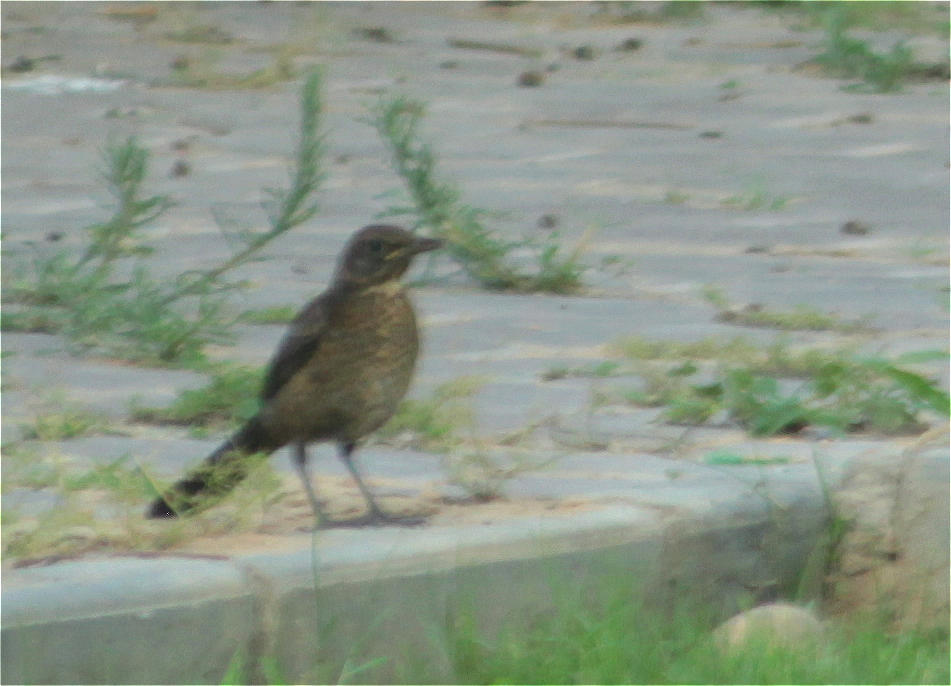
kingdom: Animalia
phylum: Chordata
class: Aves
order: Passeriformes
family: Turdidae
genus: Turdus
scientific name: Turdus merula
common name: Common blackbird
